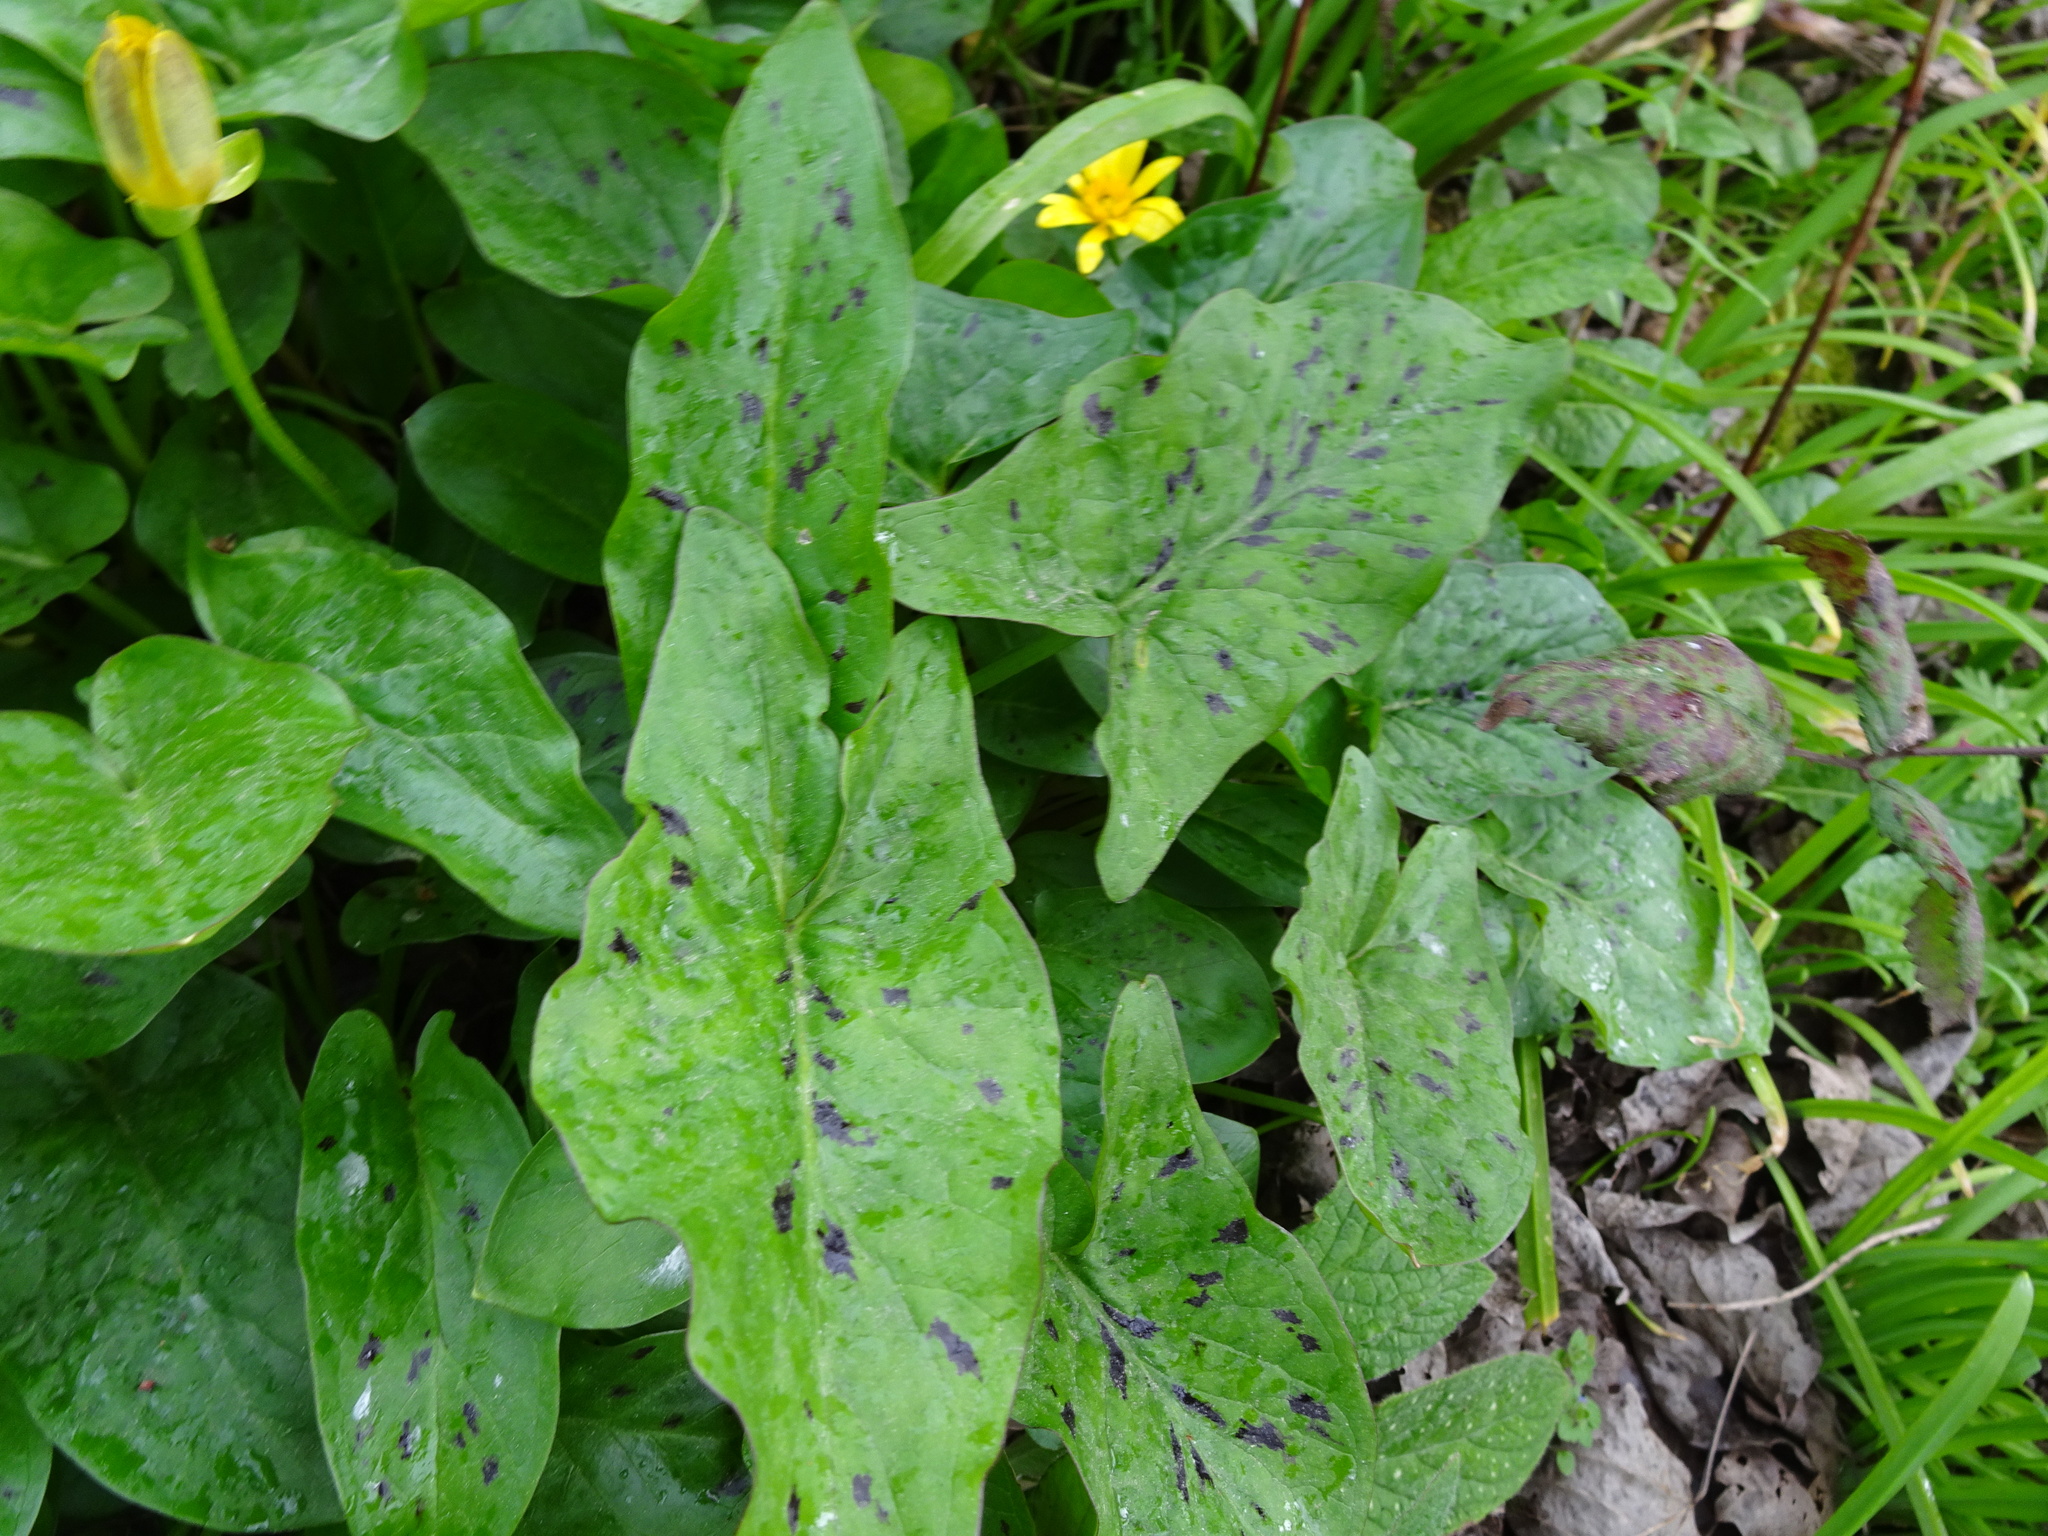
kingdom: Plantae
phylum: Tracheophyta
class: Liliopsida
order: Alismatales
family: Araceae
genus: Arum
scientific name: Arum maculatum
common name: Lords-and-ladies
